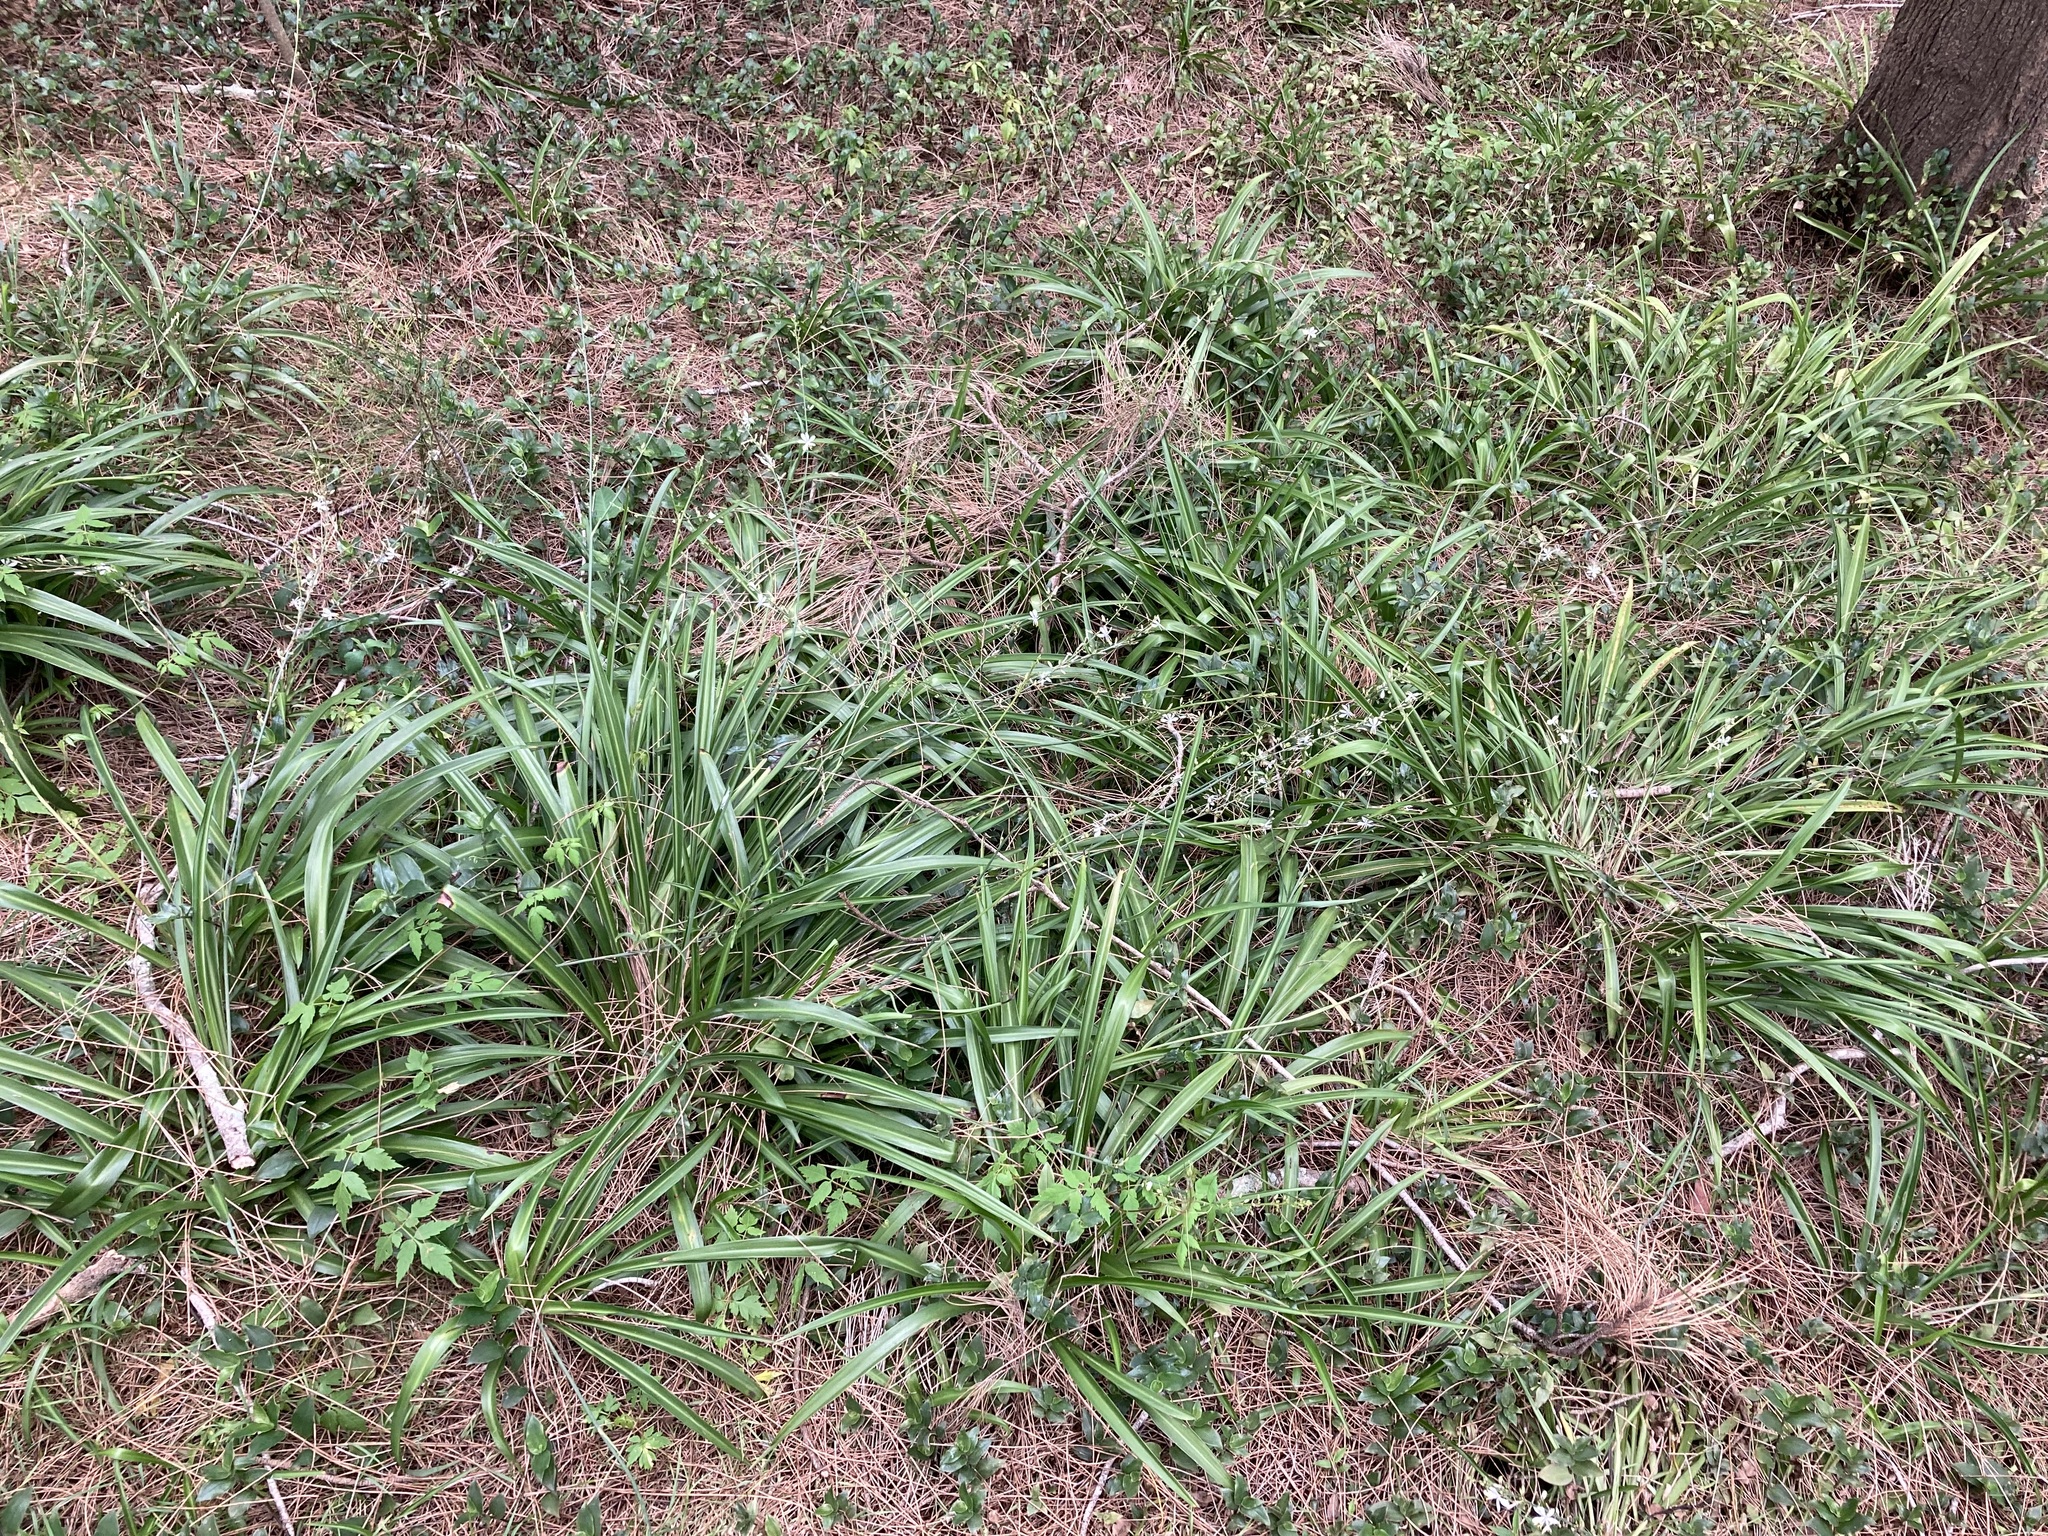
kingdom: Plantae
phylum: Tracheophyta
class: Liliopsida
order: Asparagales
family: Asparagaceae
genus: Chlorophytum
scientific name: Chlorophytum comosum
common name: Spider plant
